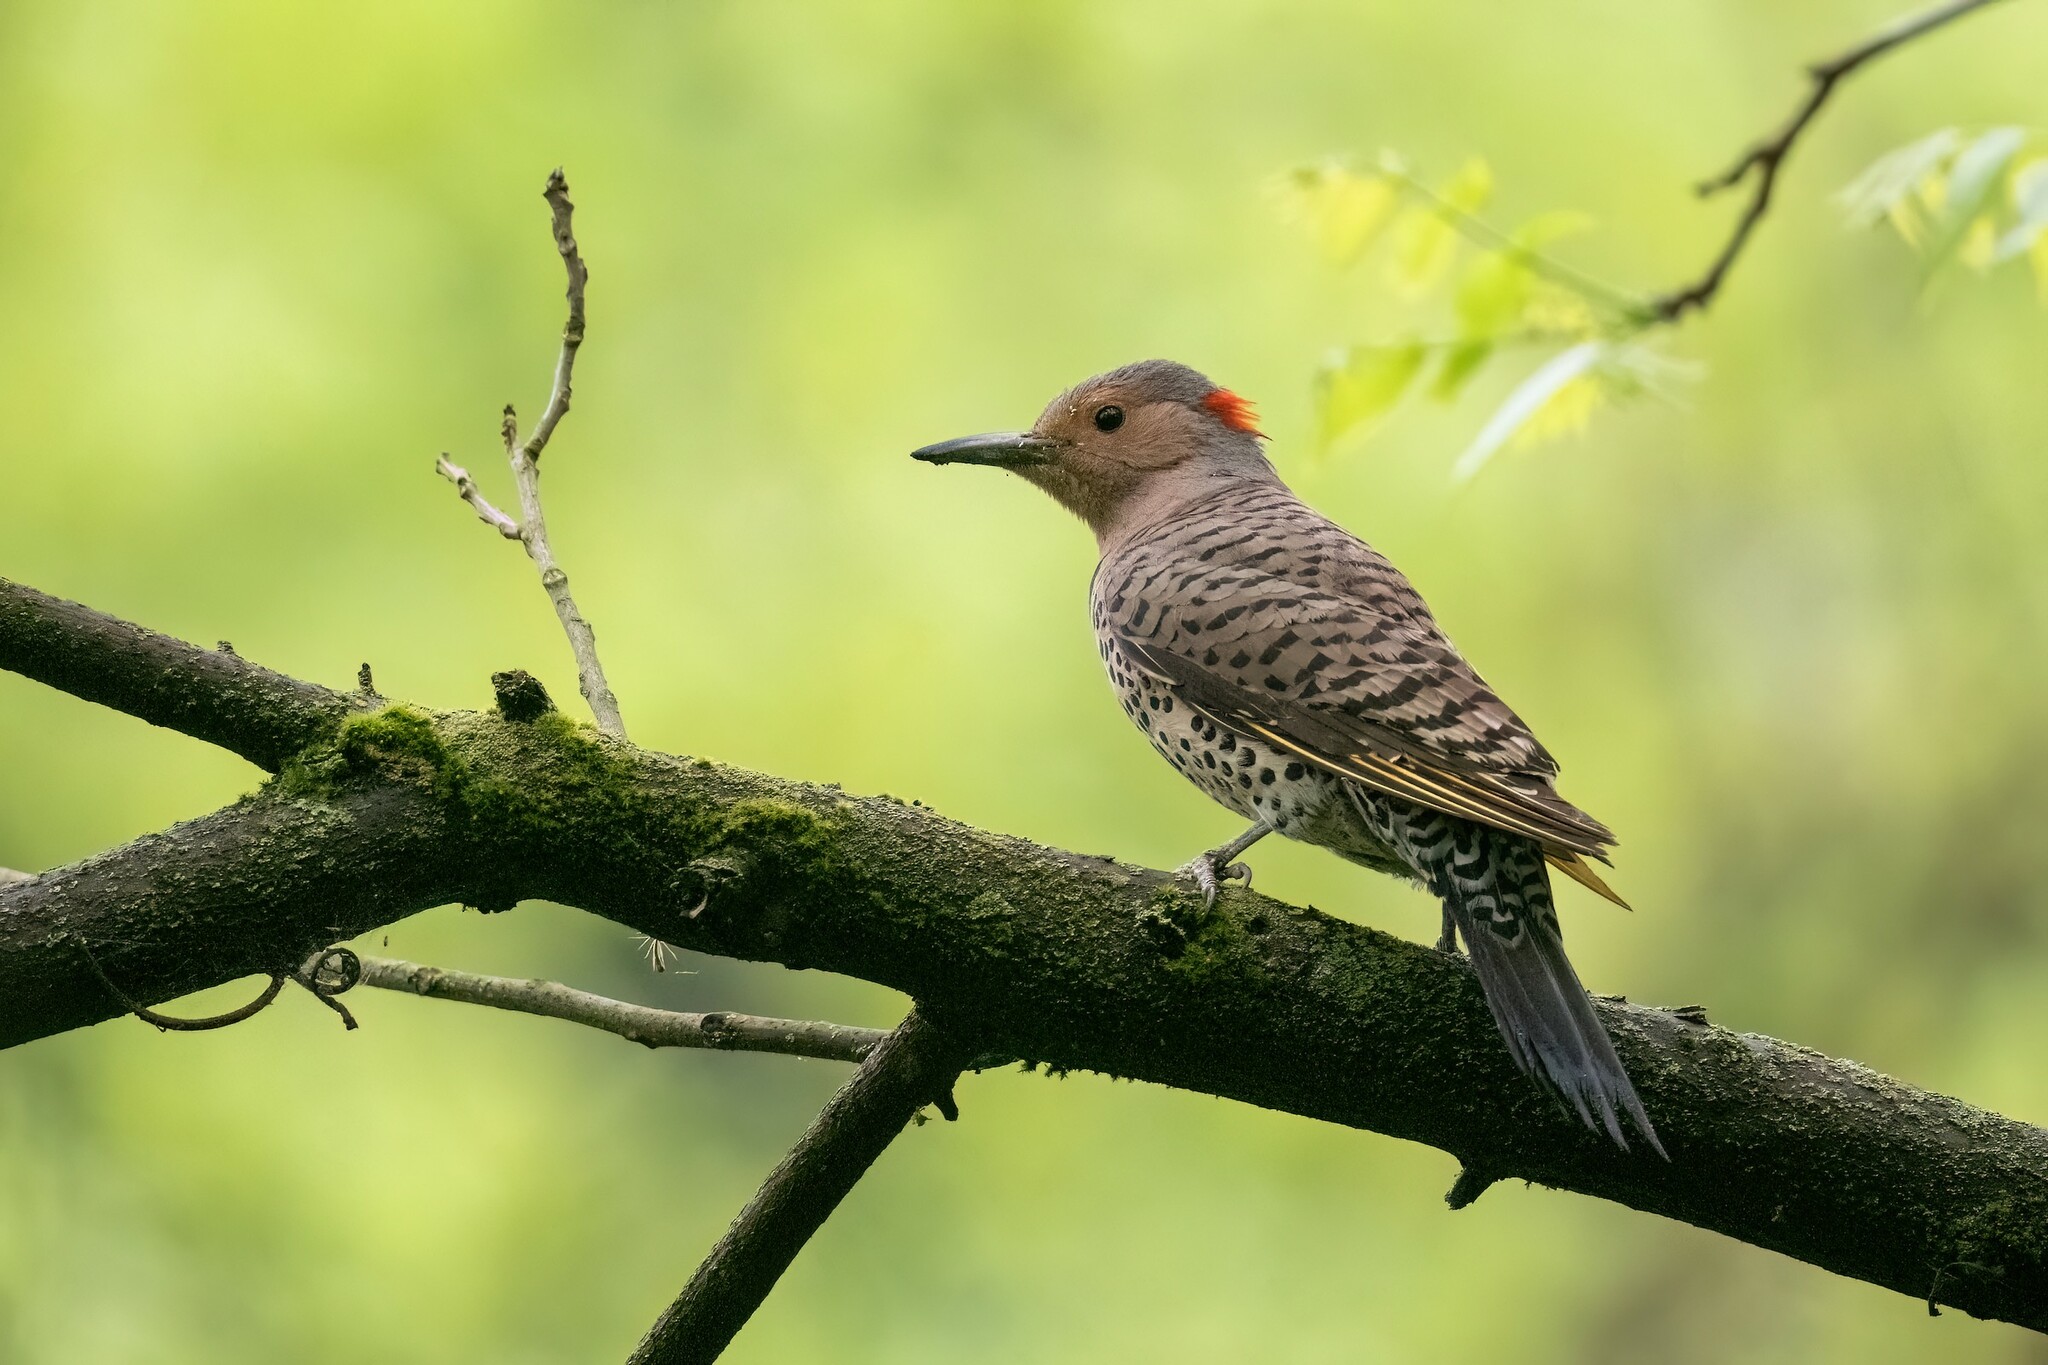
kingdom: Animalia
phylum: Chordata
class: Aves
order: Piciformes
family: Picidae
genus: Colaptes
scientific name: Colaptes auratus
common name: Northern flicker
